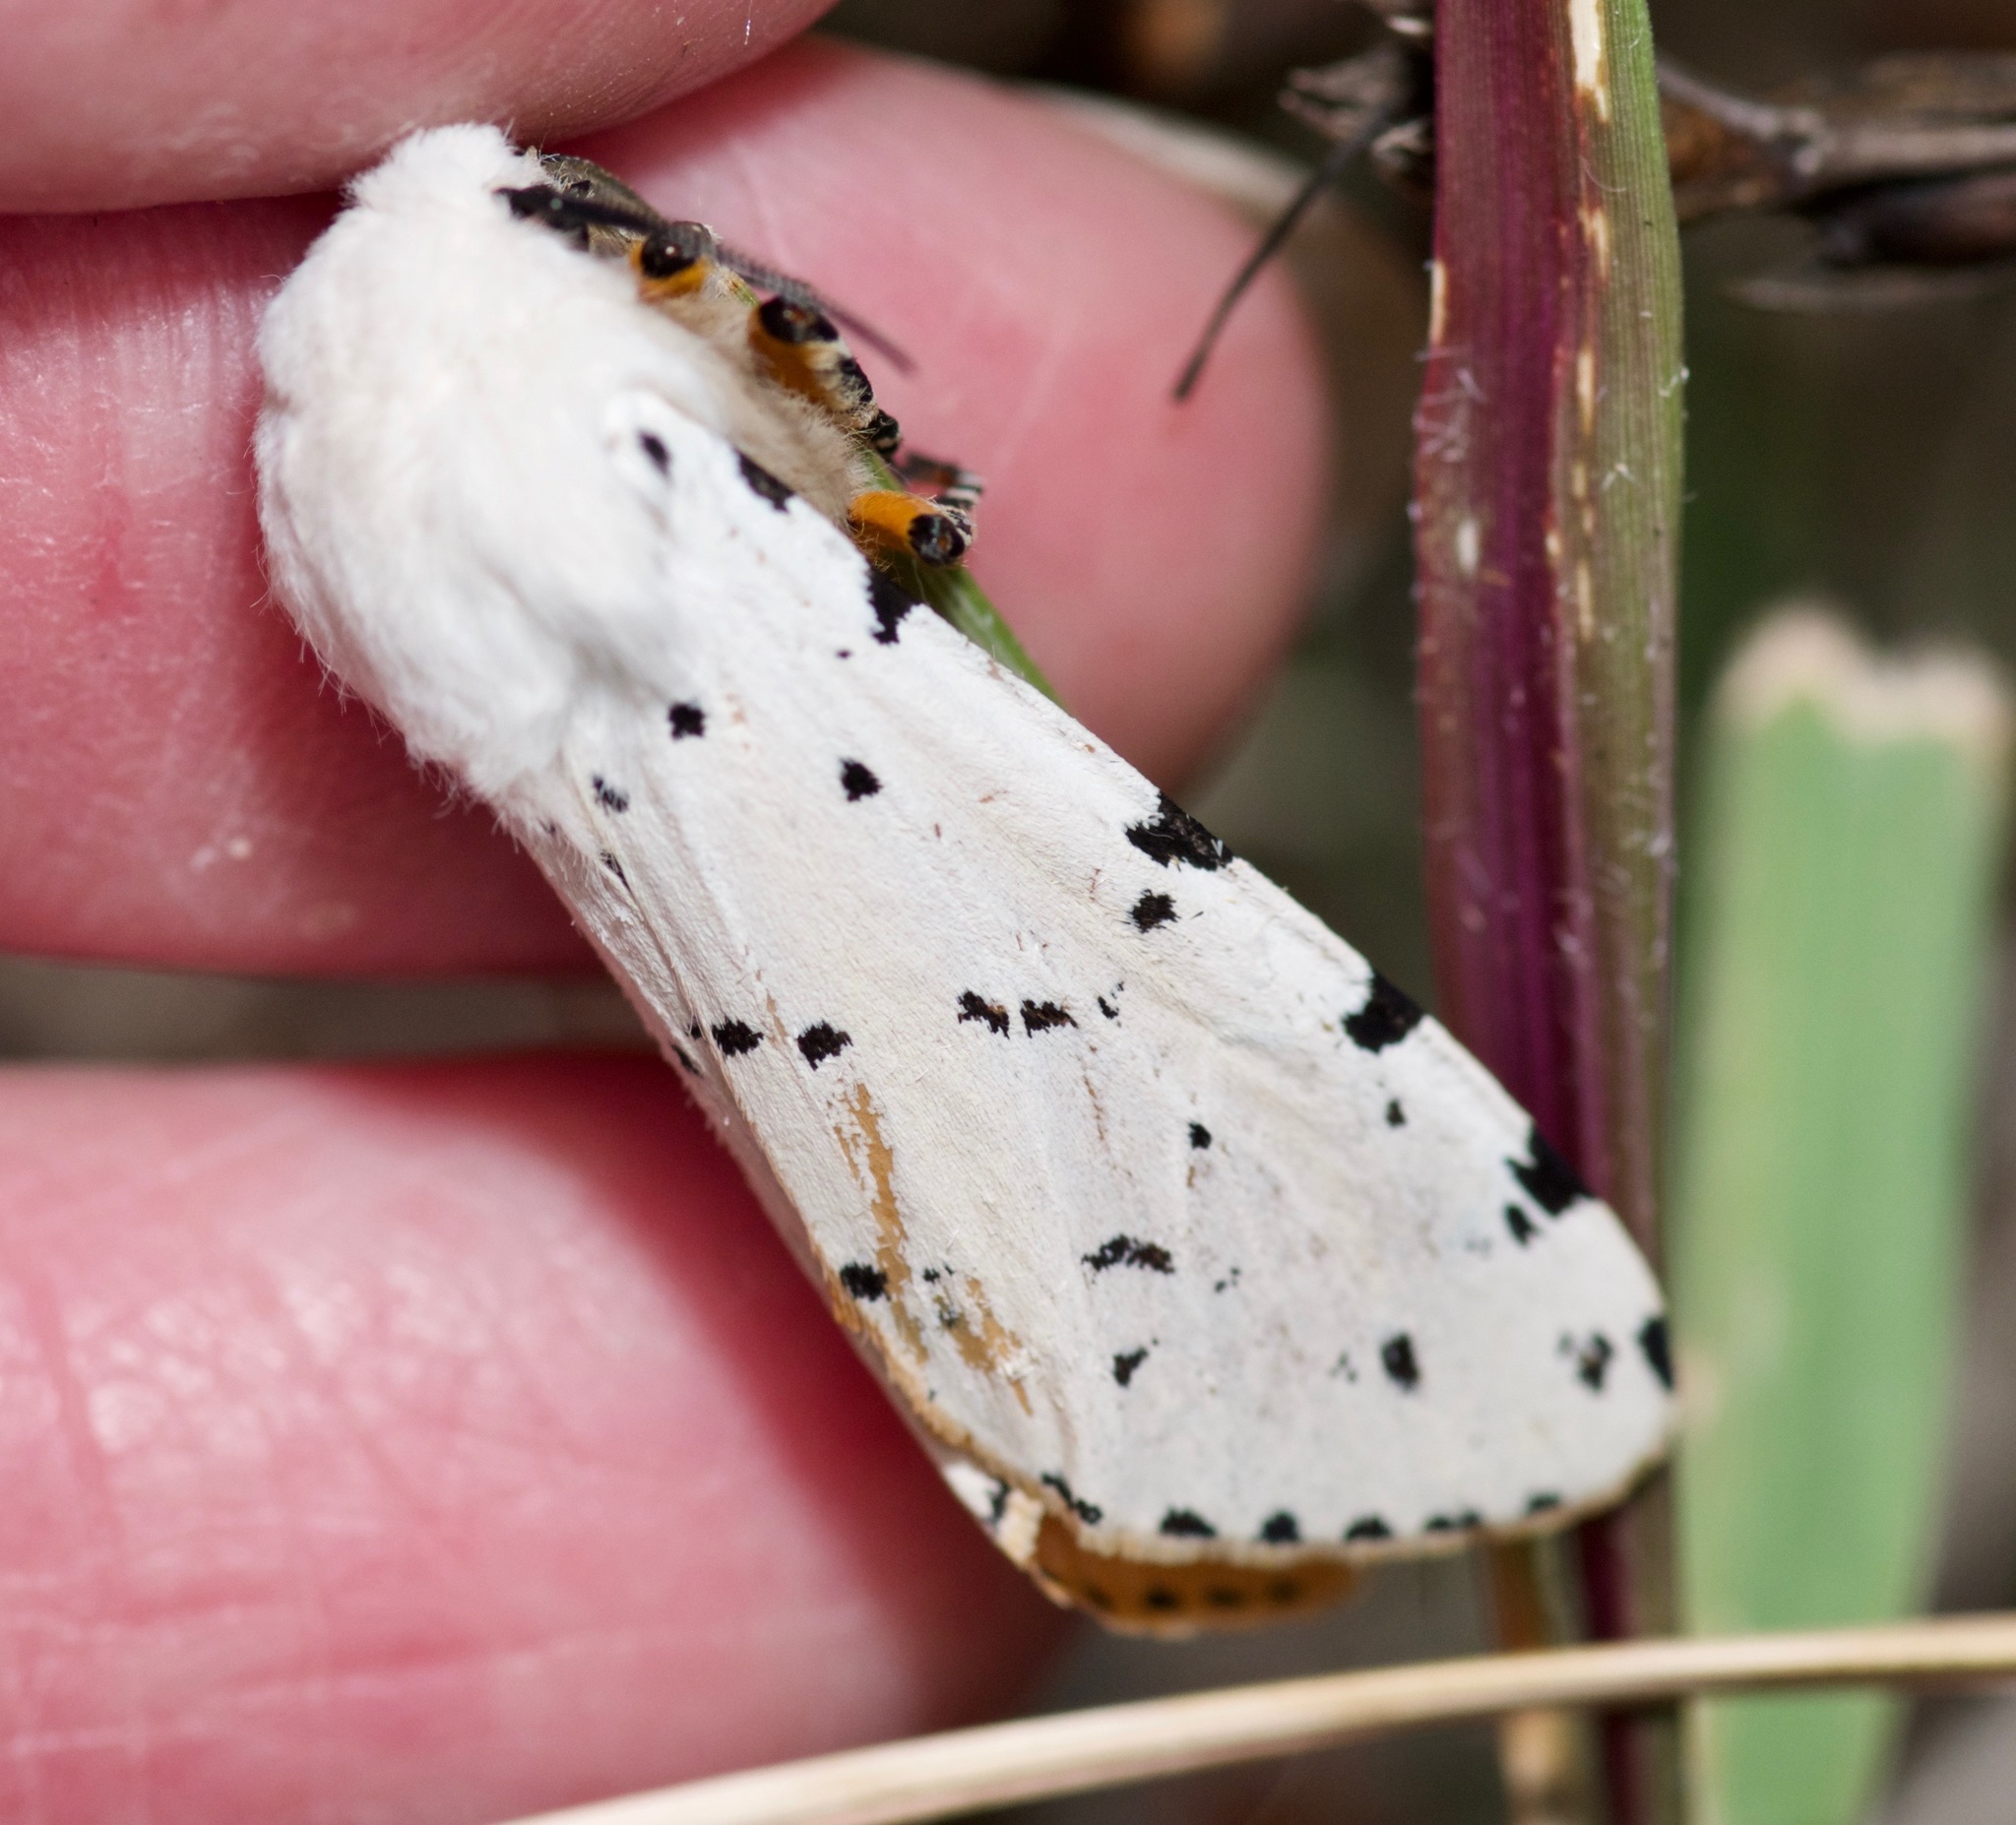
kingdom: Animalia
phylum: Arthropoda
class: Insecta
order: Lepidoptera
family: Erebidae
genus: Estigmene
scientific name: Estigmene acrea
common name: Salt marsh moth
